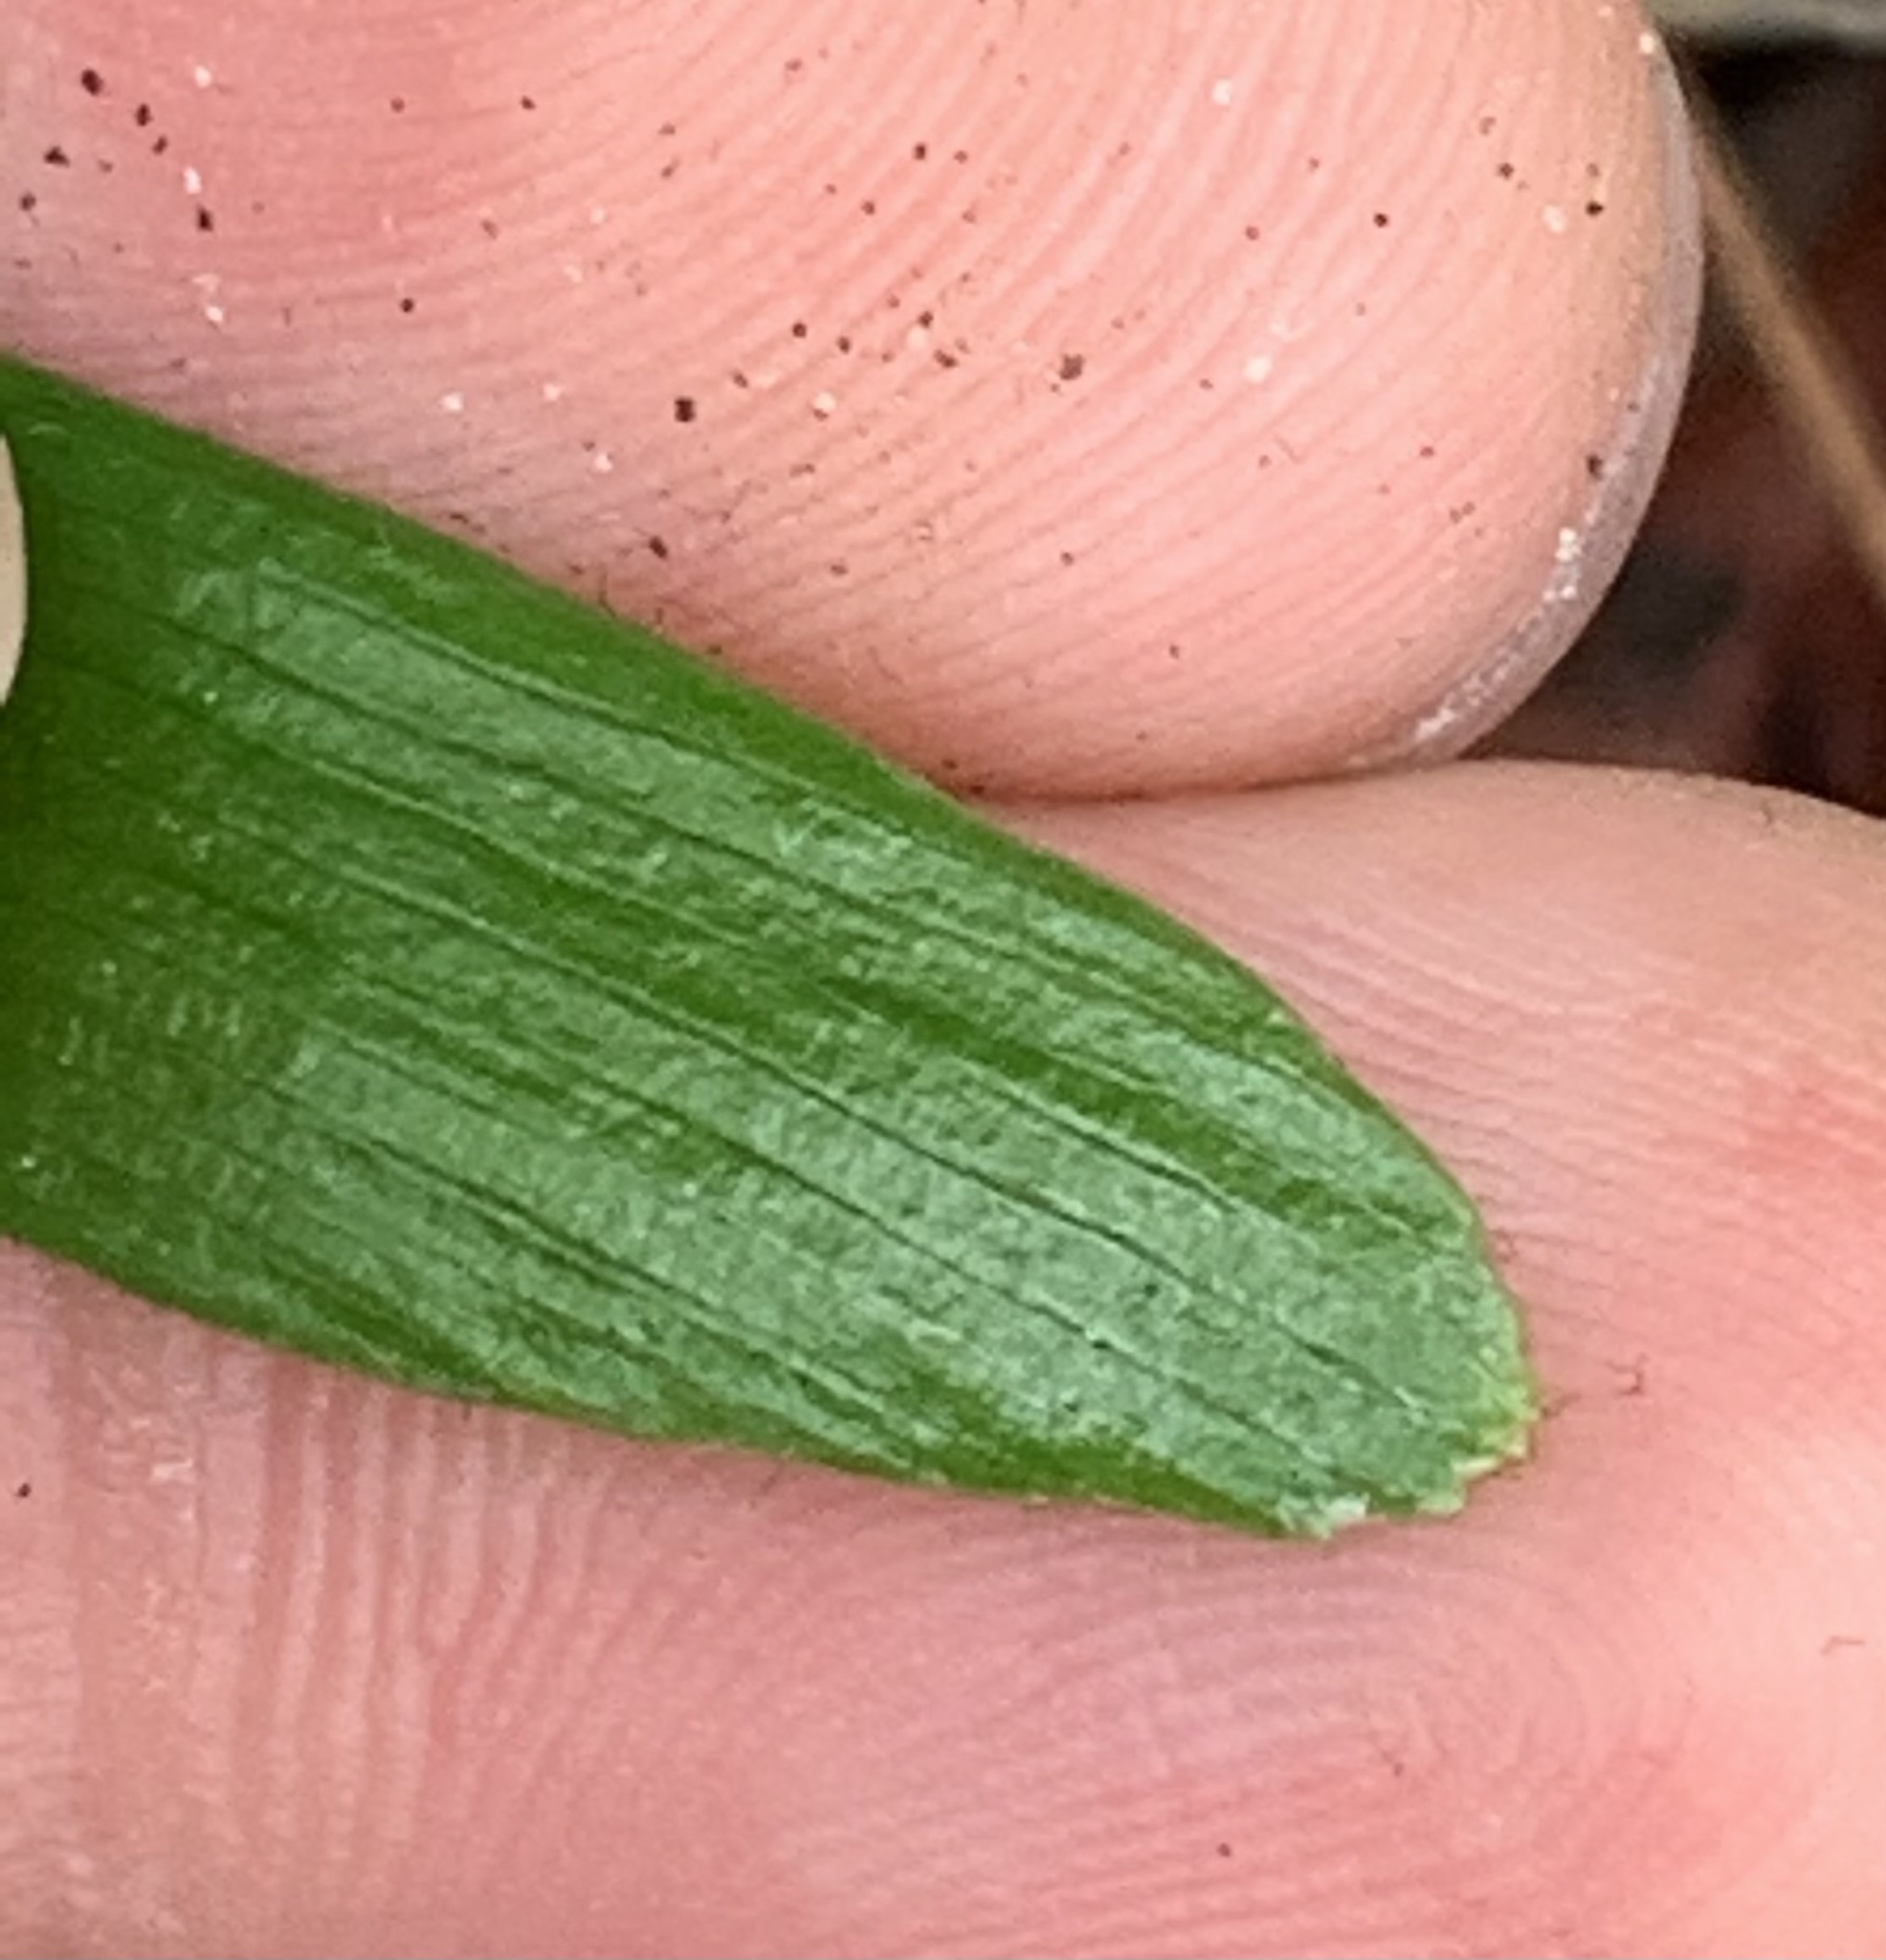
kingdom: Plantae
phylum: Tracheophyta
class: Cycadopsida
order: Cycadales
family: Zamiaceae
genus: Zamia
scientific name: Zamia integrifolia
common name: Florida arrowroot
